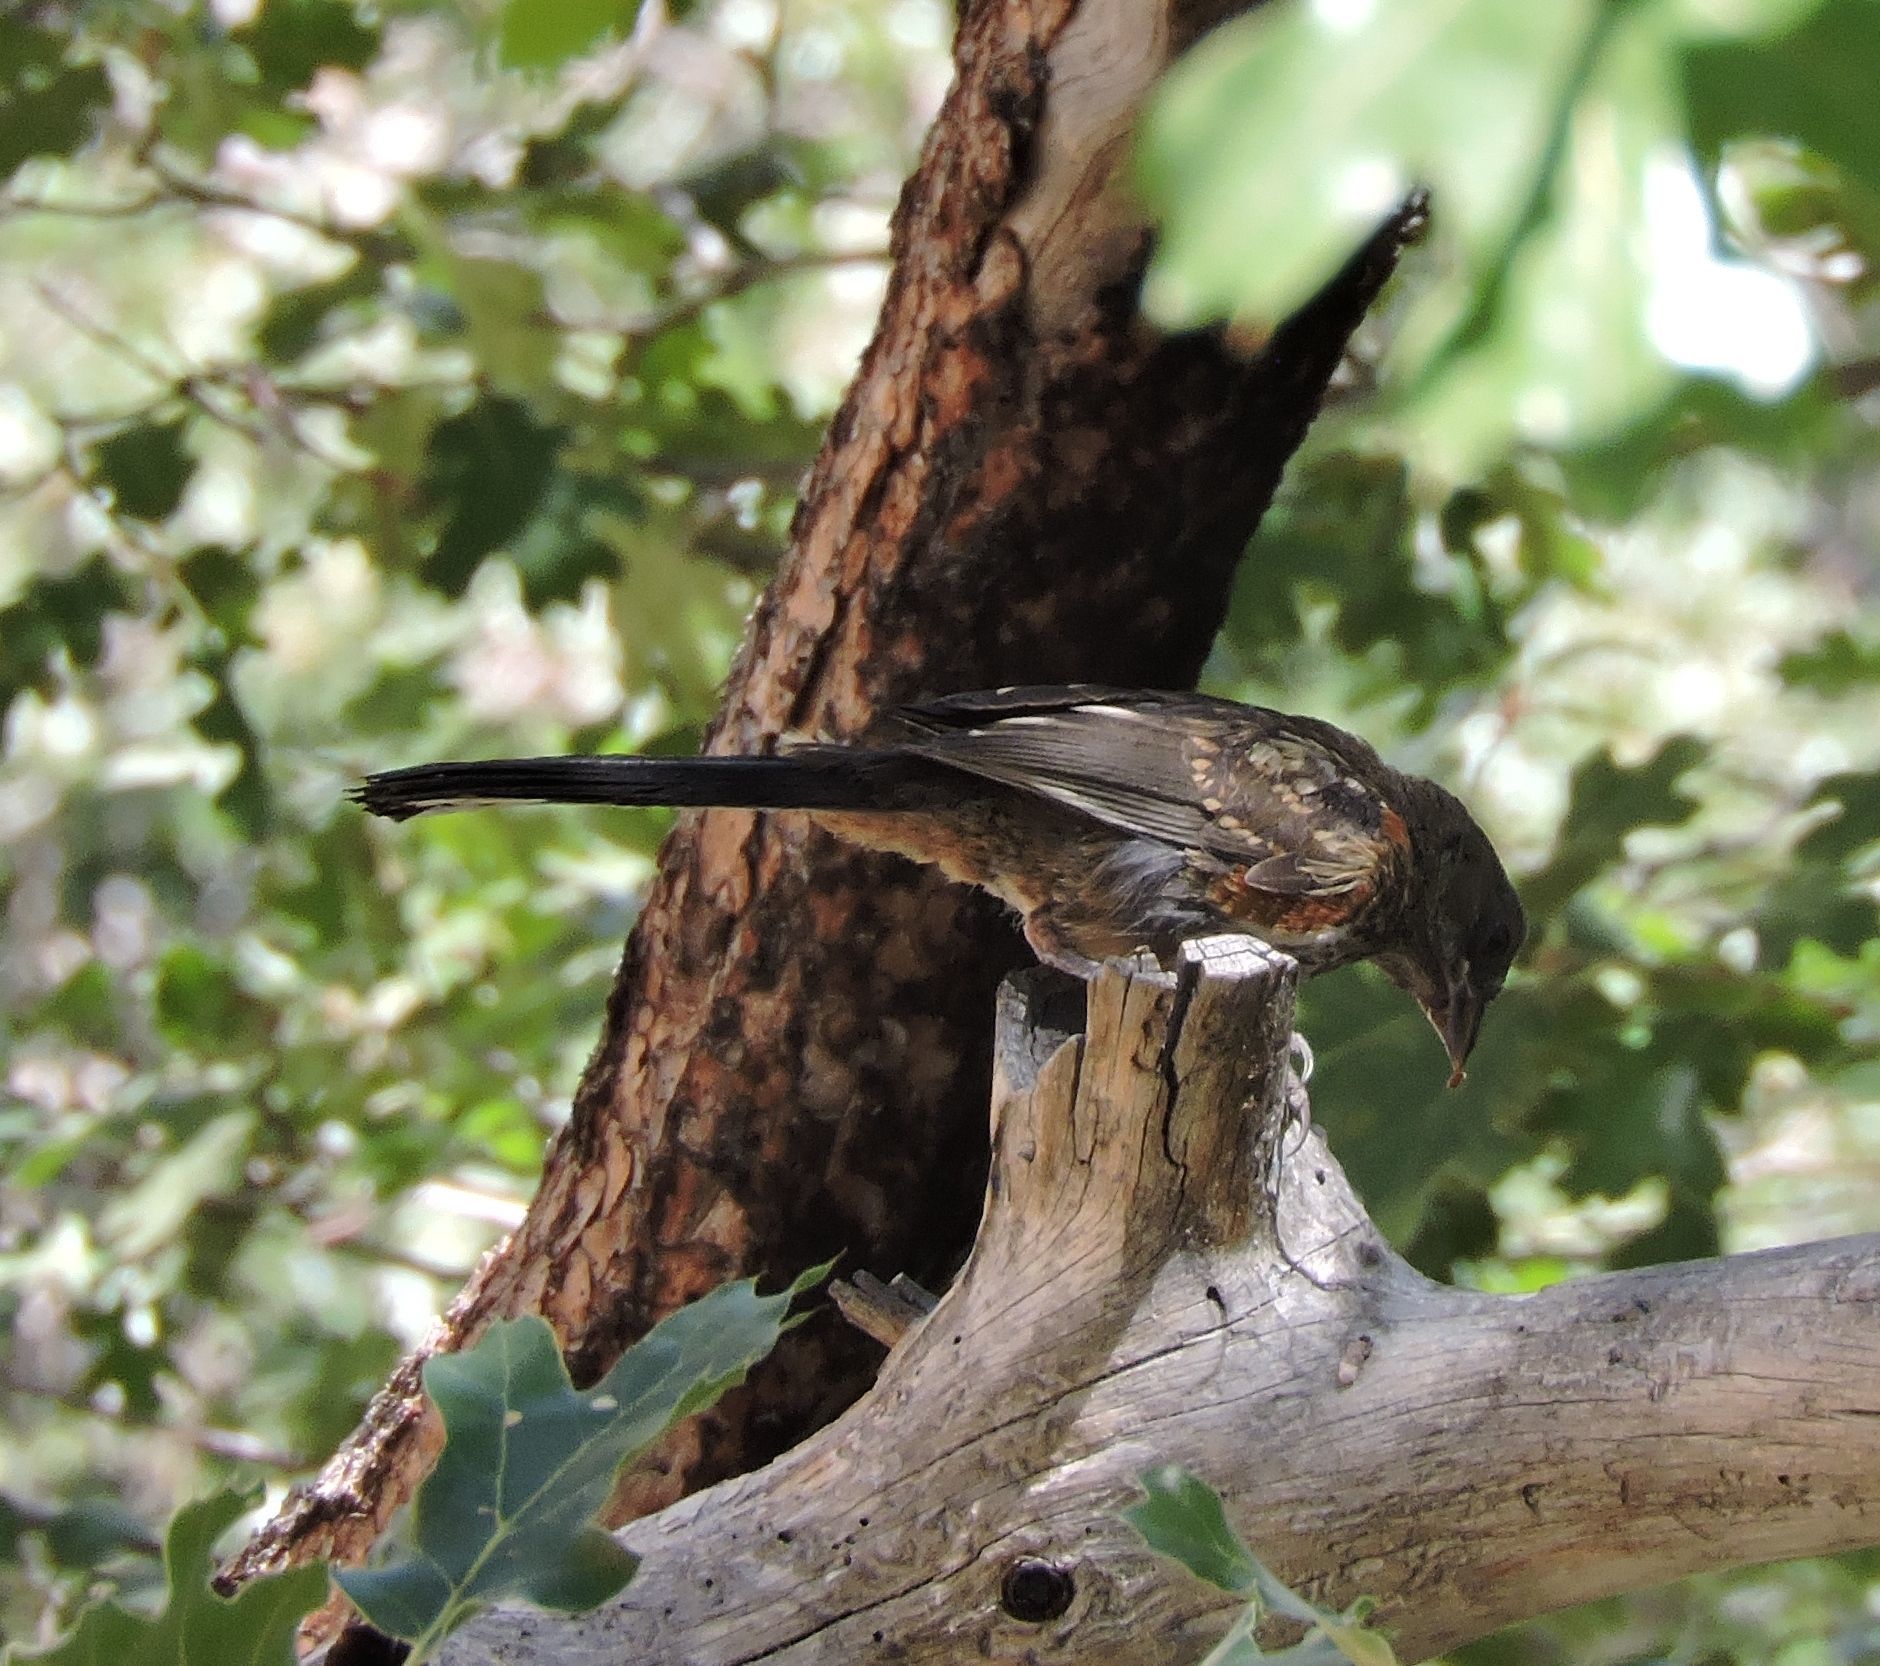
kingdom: Animalia
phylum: Chordata
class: Aves
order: Passeriformes
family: Passerellidae
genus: Pipilo
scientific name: Pipilo maculatus
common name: Spotted towhee
